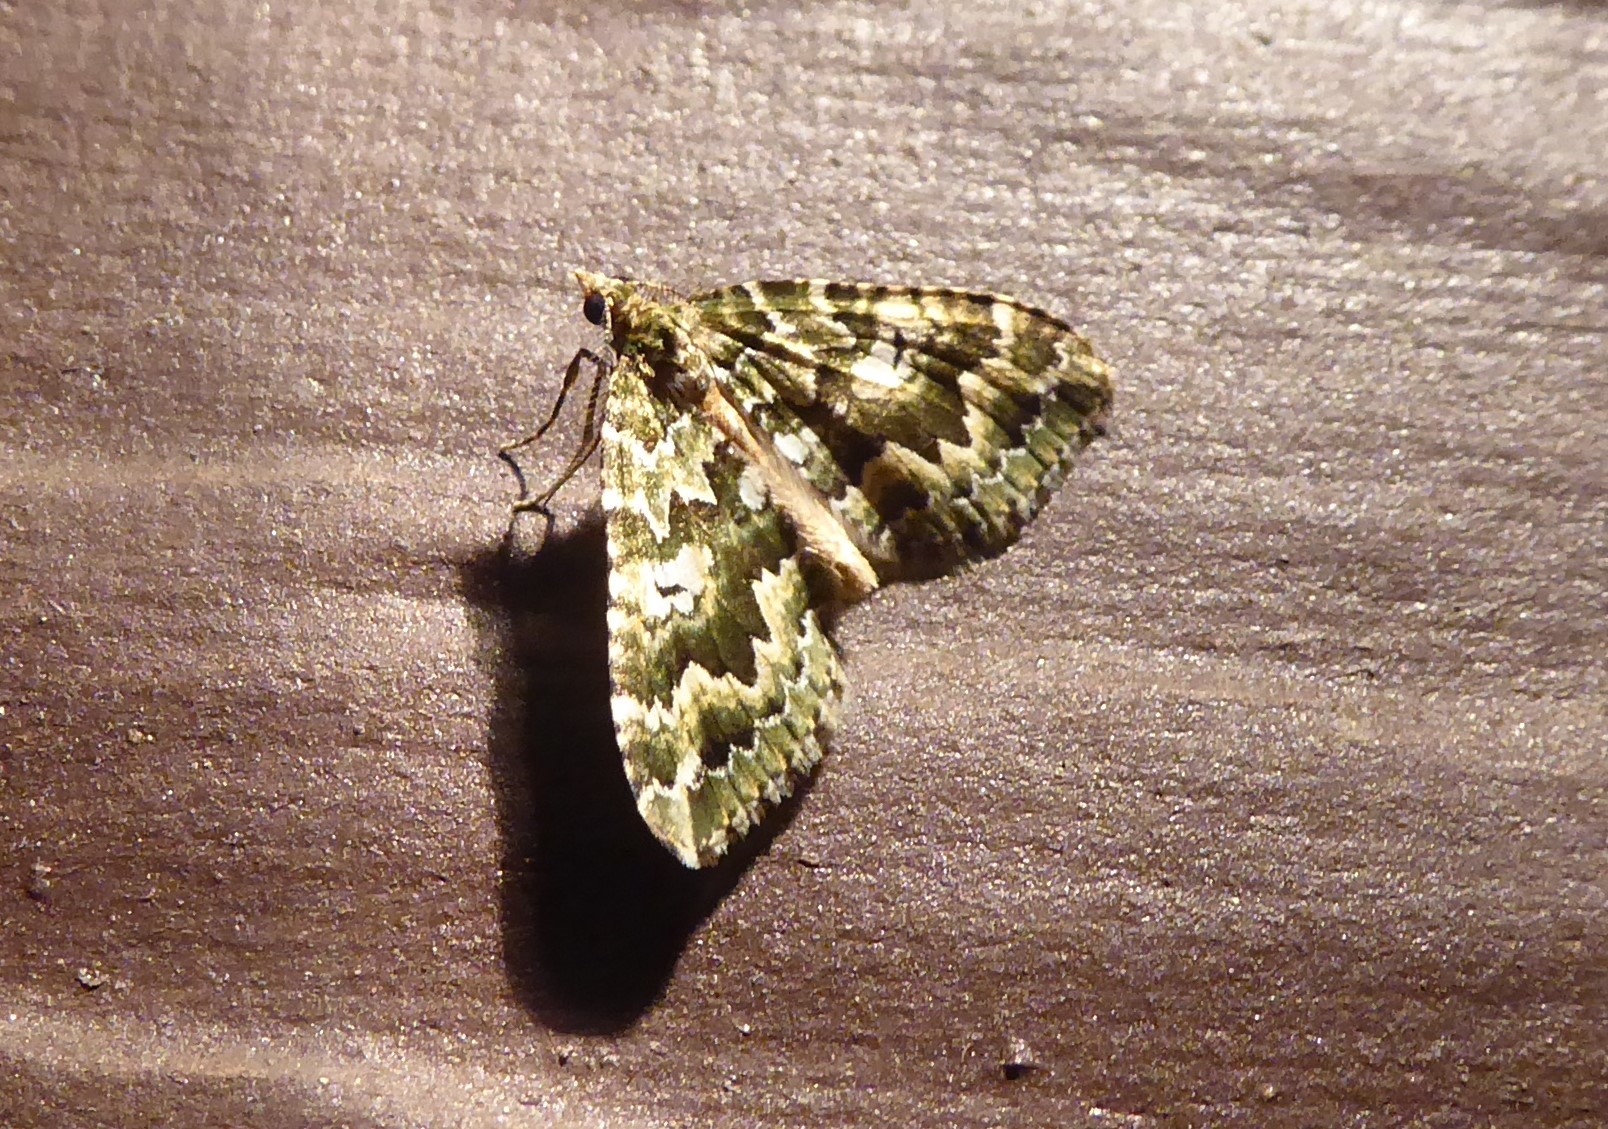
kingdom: Animalia
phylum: Arthropoda
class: Insecta
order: Lepidoptera
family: Geometridae
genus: Asaphodes
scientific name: Asaphodes beata
